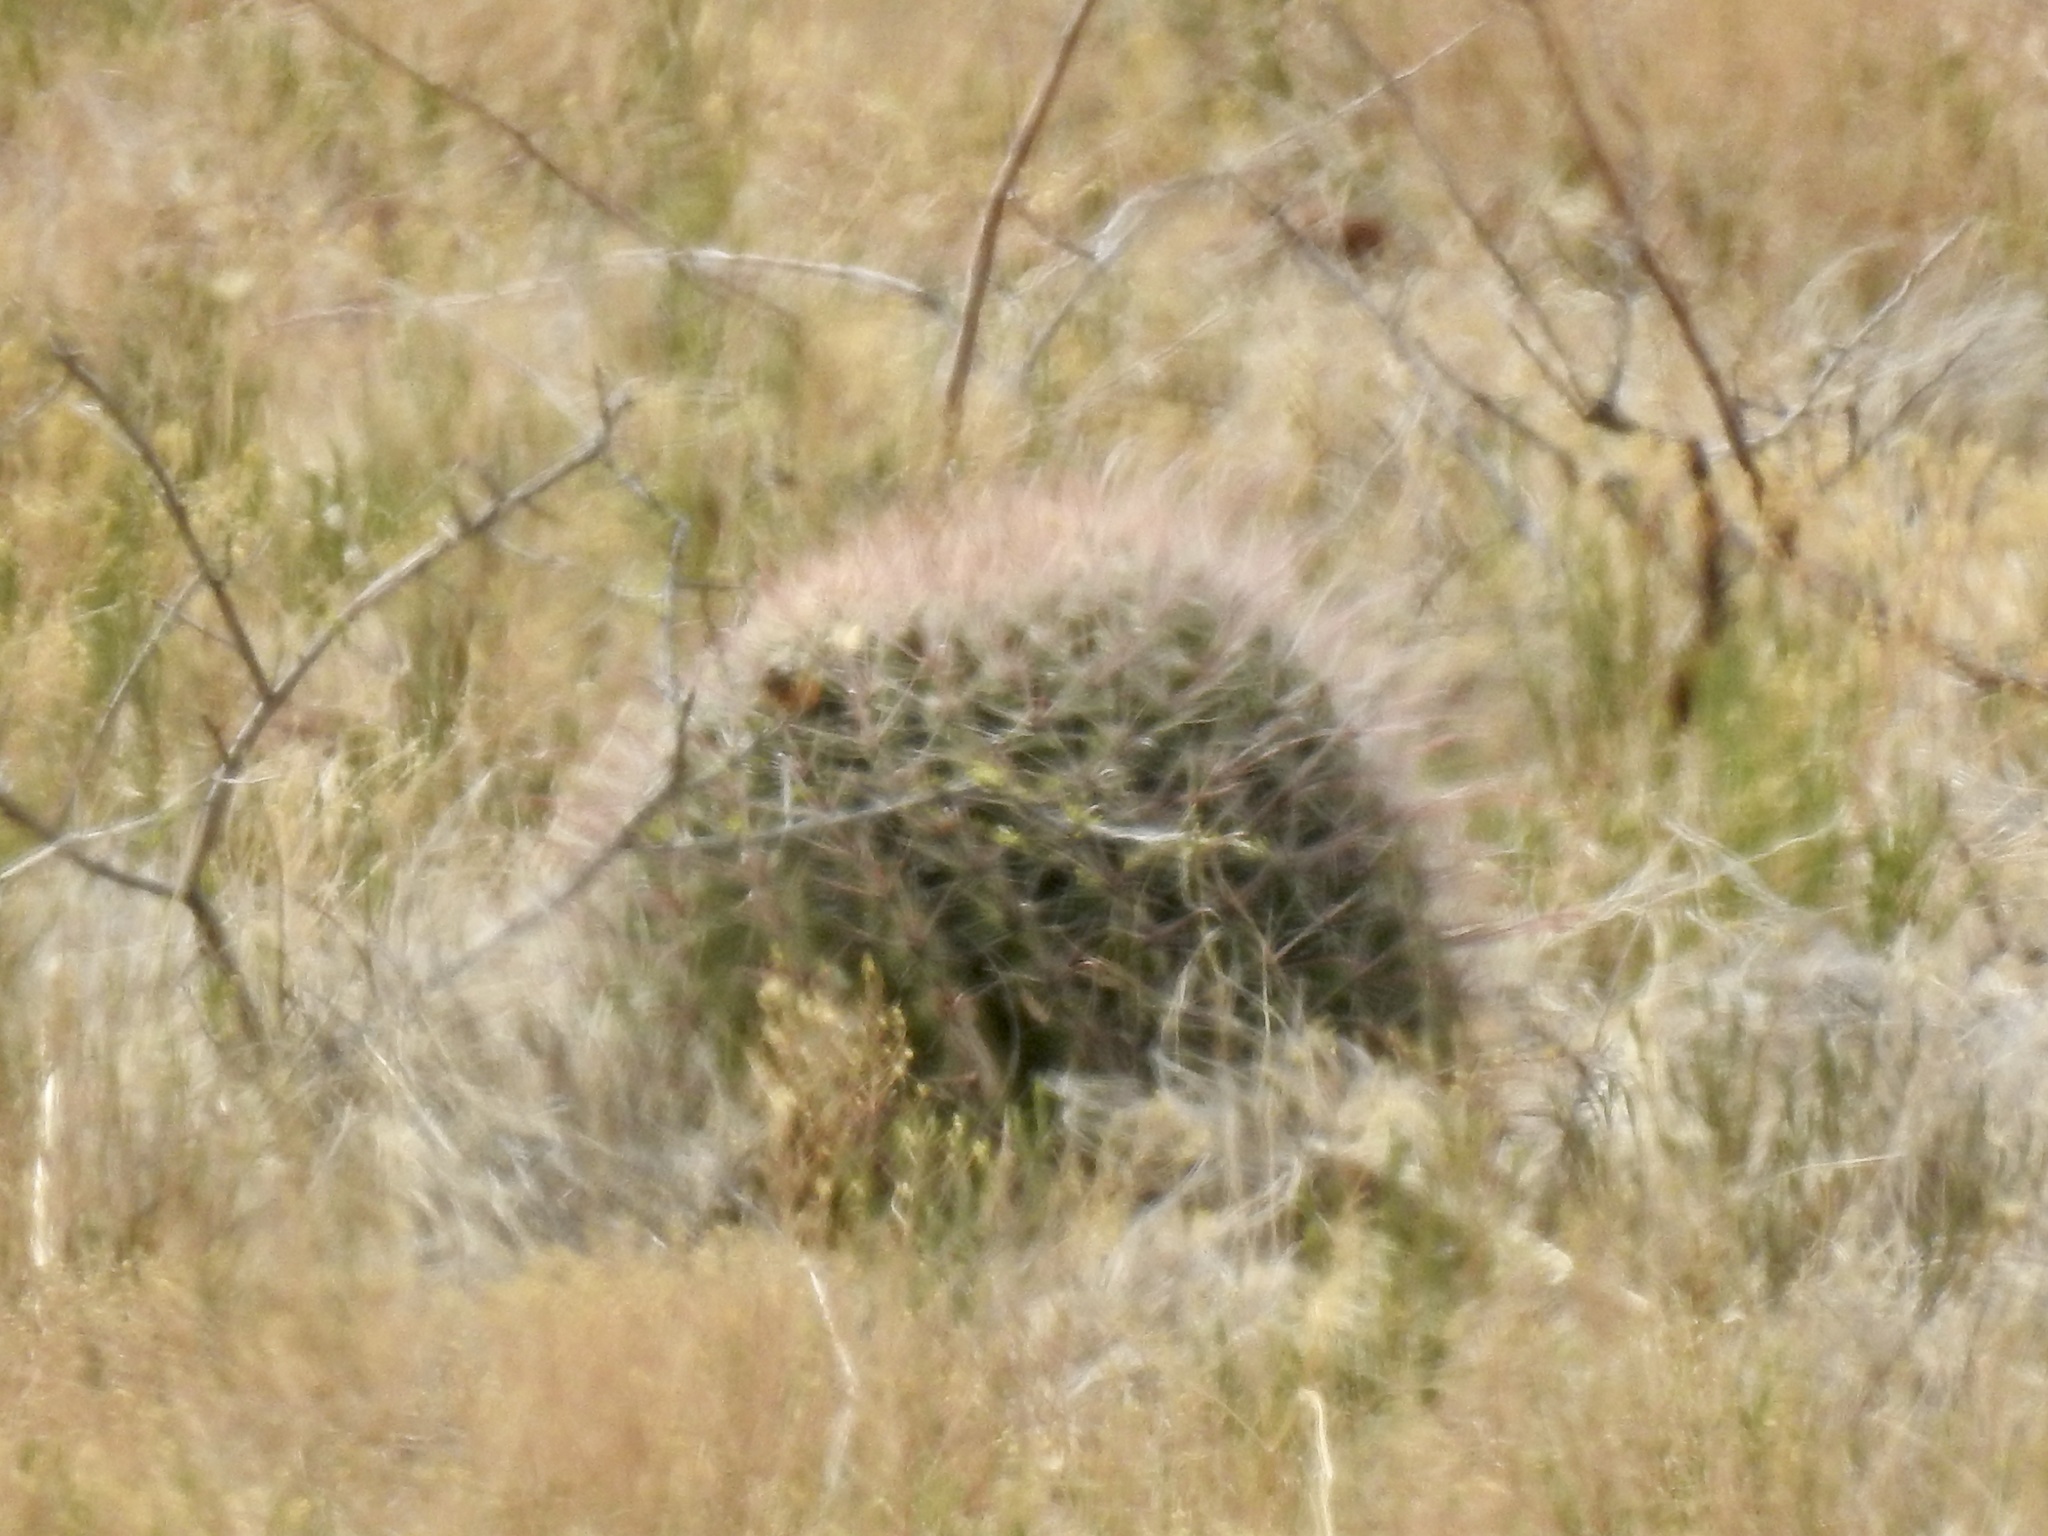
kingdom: Plantae
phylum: Tracheophyta
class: Magnoliopsida
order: Caryophyllales
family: Cactaceae
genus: Ferocactus
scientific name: Ferocactus wislizeni
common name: Candy barrel cactus
